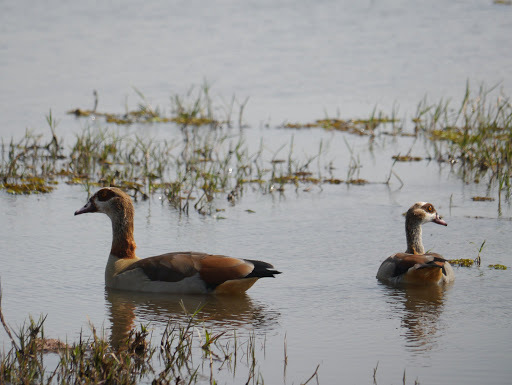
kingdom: Animalia
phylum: Chordata
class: Aves
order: Anseriformes
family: Anatidae
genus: Alopochen
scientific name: Alopochen aegyptiaca
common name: Egyptian goose
